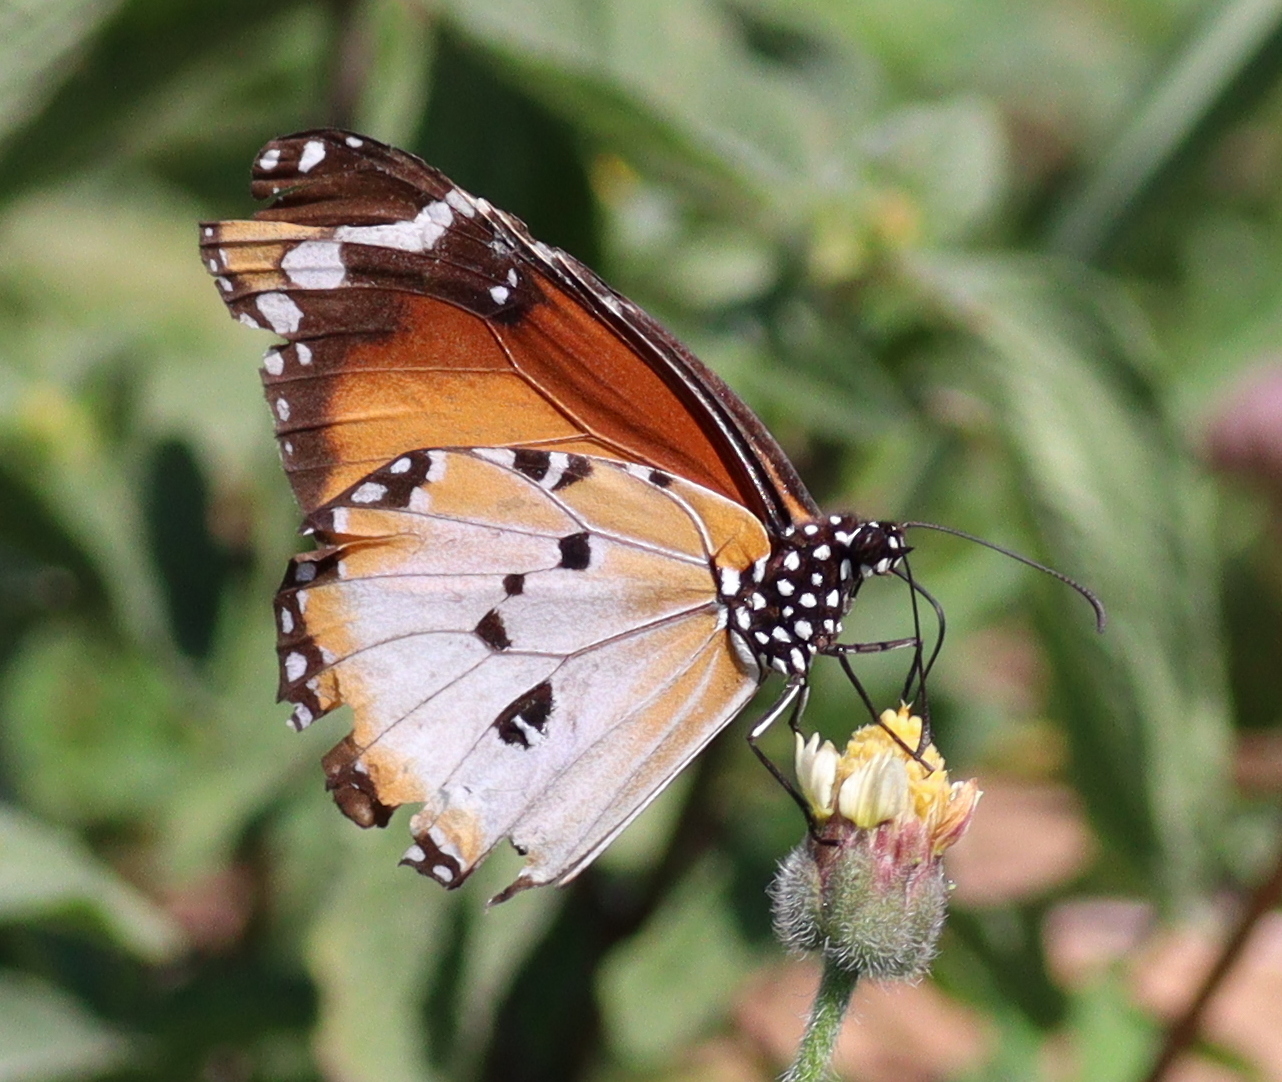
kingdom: Animalia
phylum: Arthropoda
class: Insecta
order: Lepidoptera
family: Nymphalidae
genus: Danaus
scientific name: Danaus chrysippus
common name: Plain tiger
